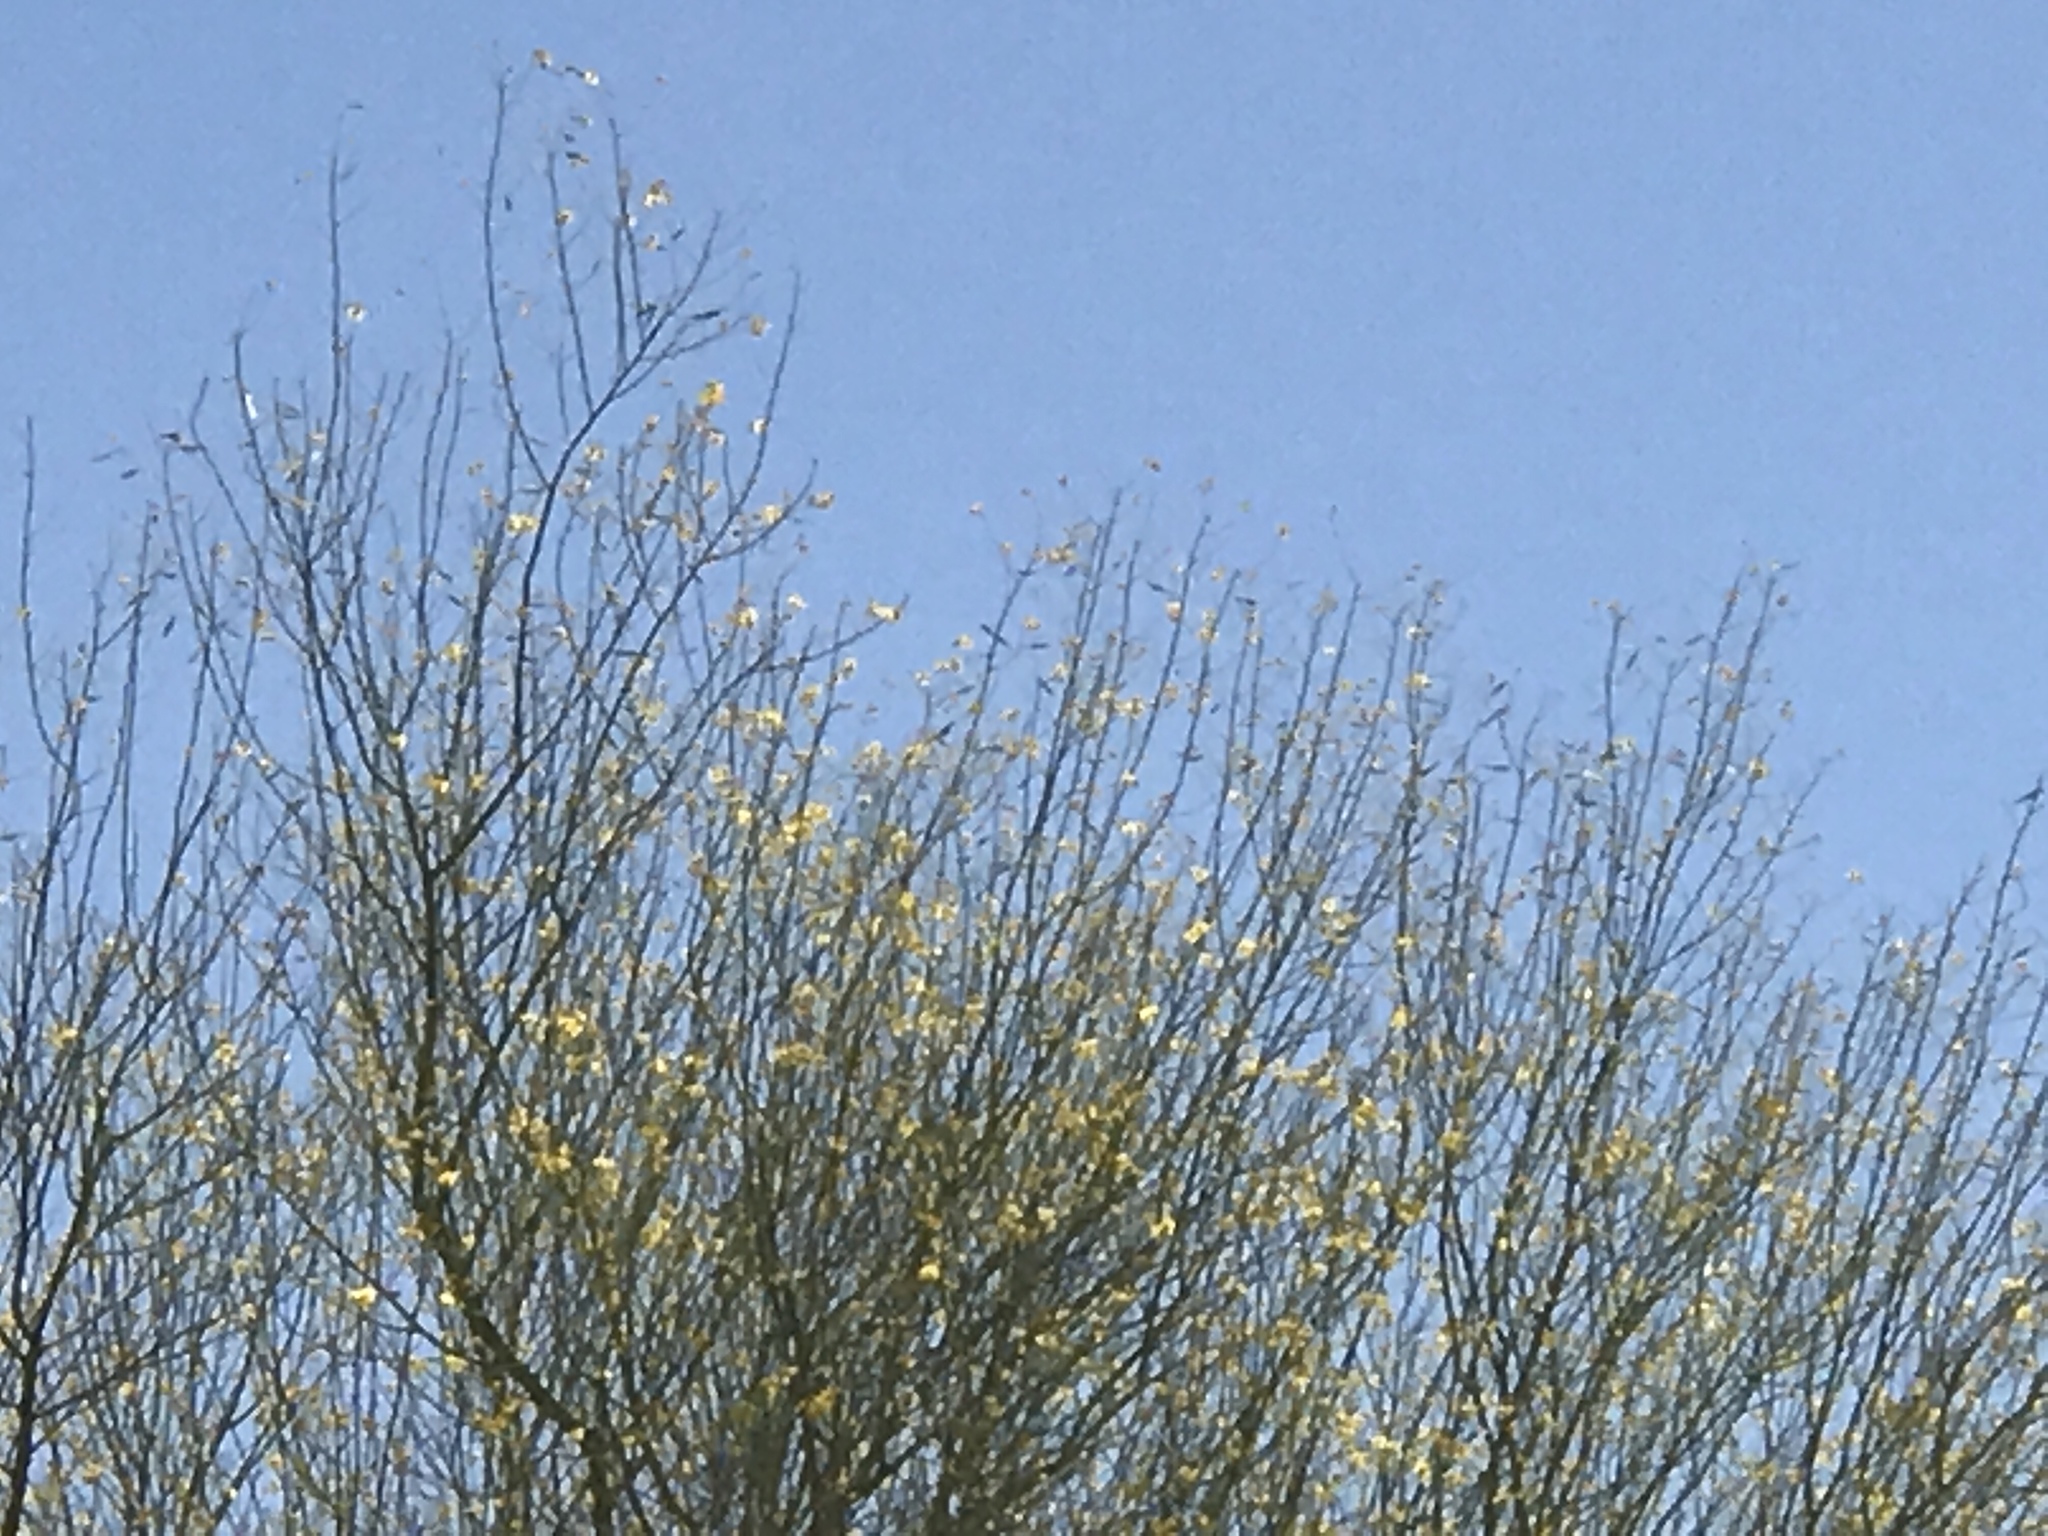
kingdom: Plantae
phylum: Tracheophyta
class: Magnoliopsida
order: Fabales
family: Fabaceae
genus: Parkinsonia
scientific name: Parkinsonia microphylla
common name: Yellow paloverde
